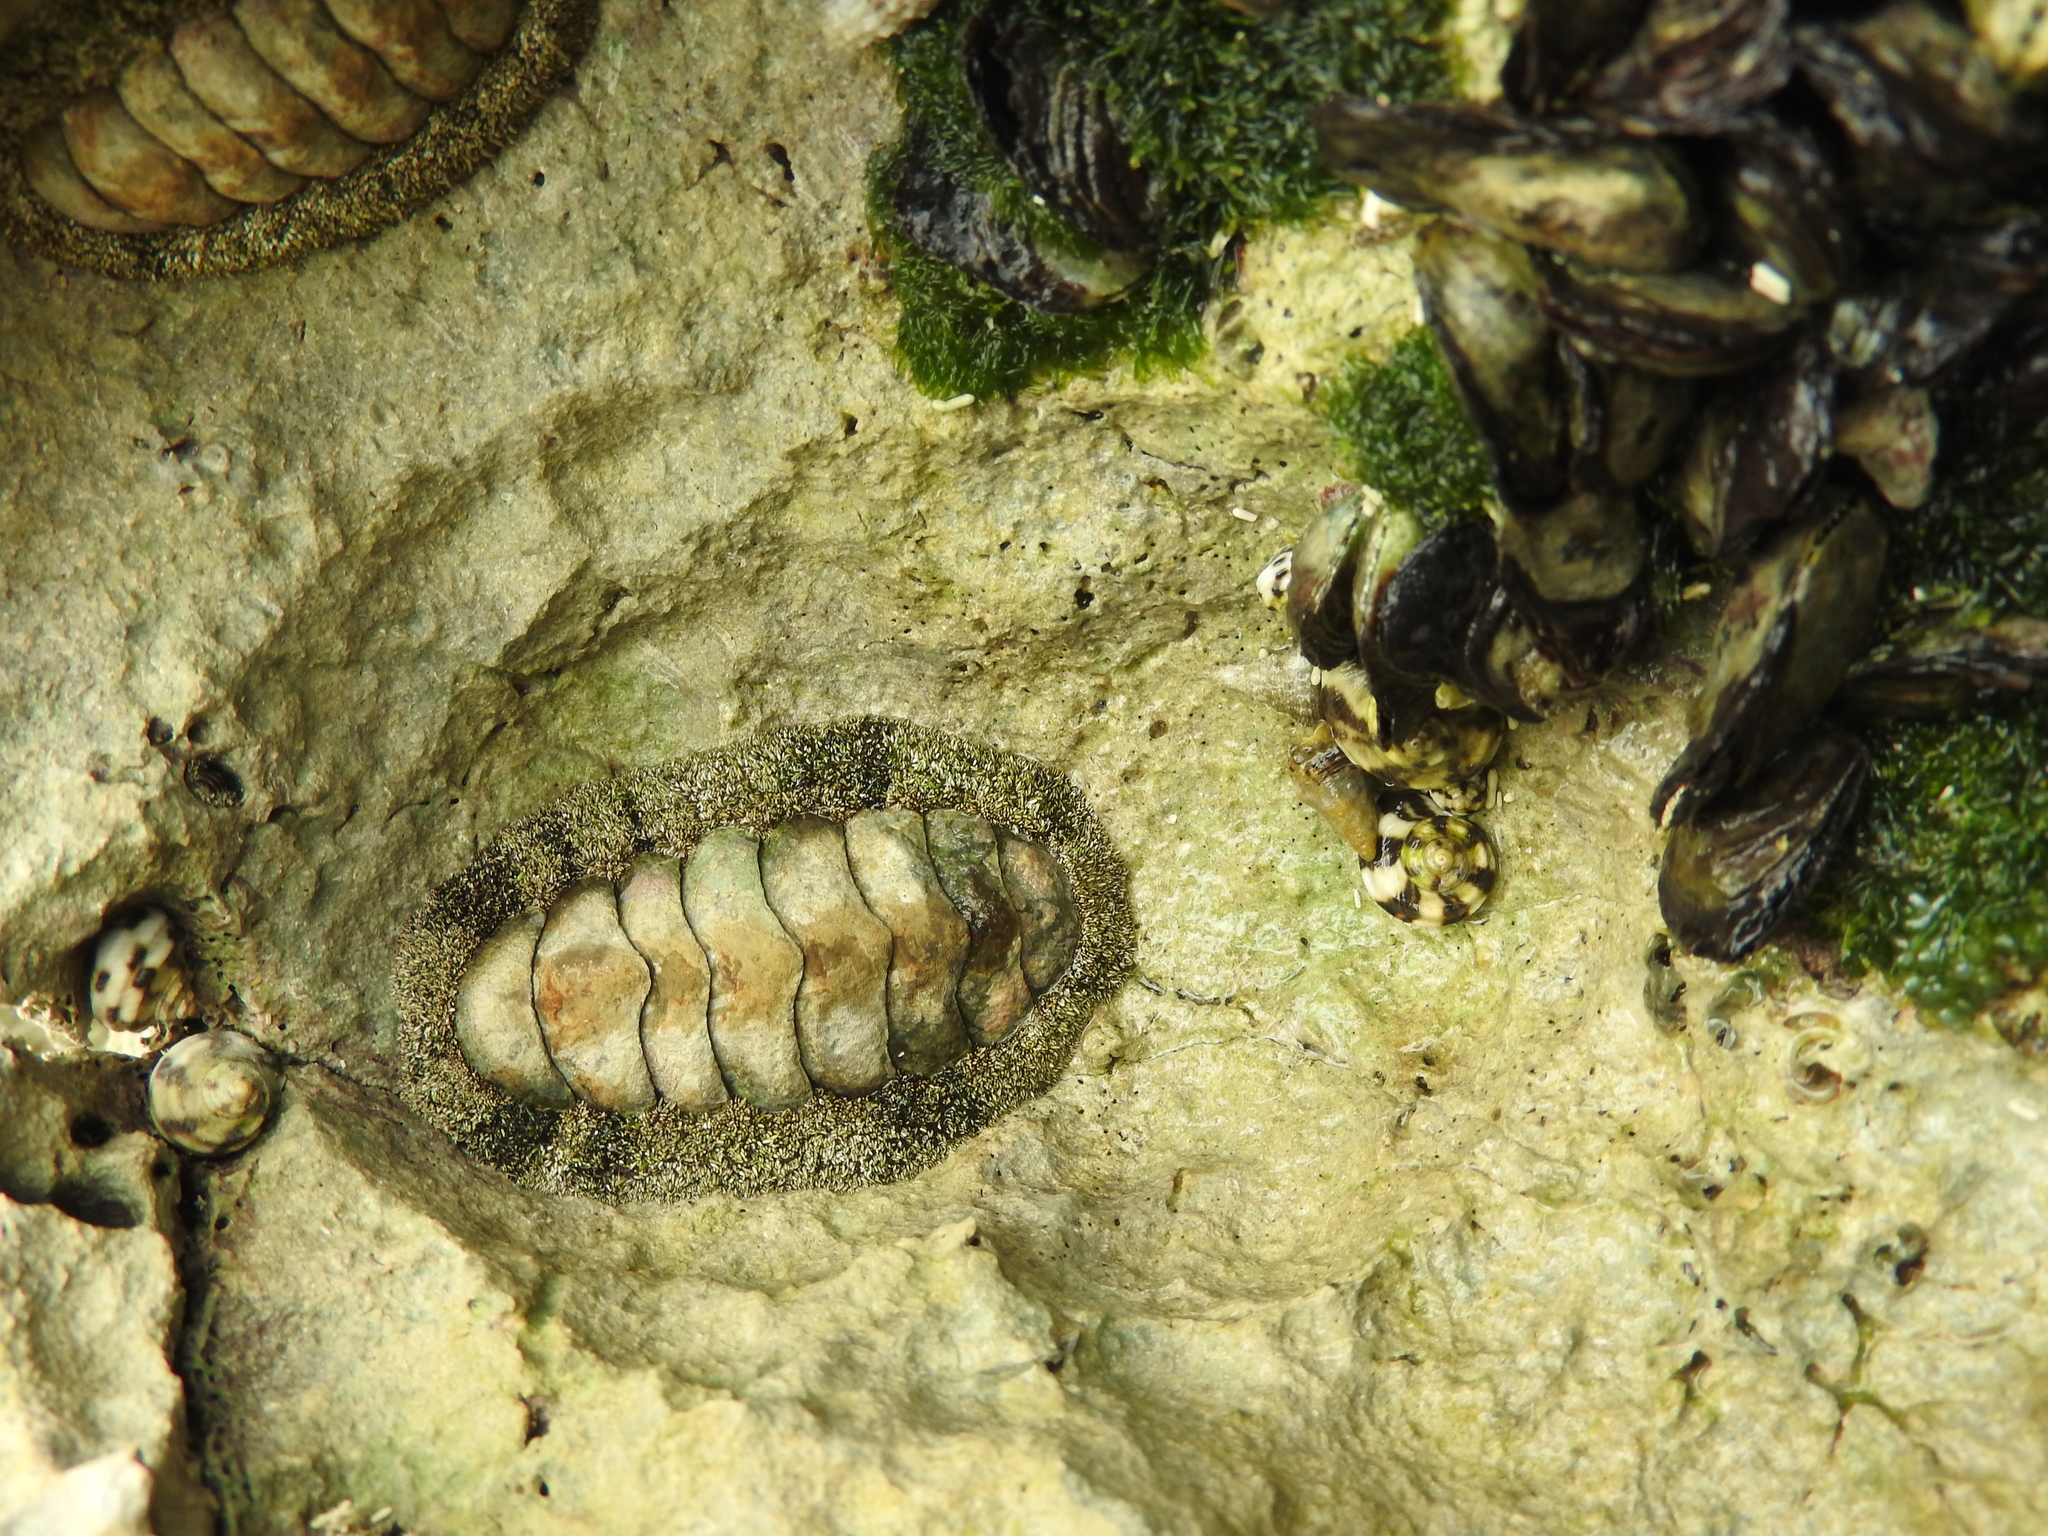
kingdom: Animalia
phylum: Mollusca
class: Polyplacophora
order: Chitonida
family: Chitonidae
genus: Acanthopleura
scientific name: Acanthopleura granulata
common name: West indian fuzzy chiton
